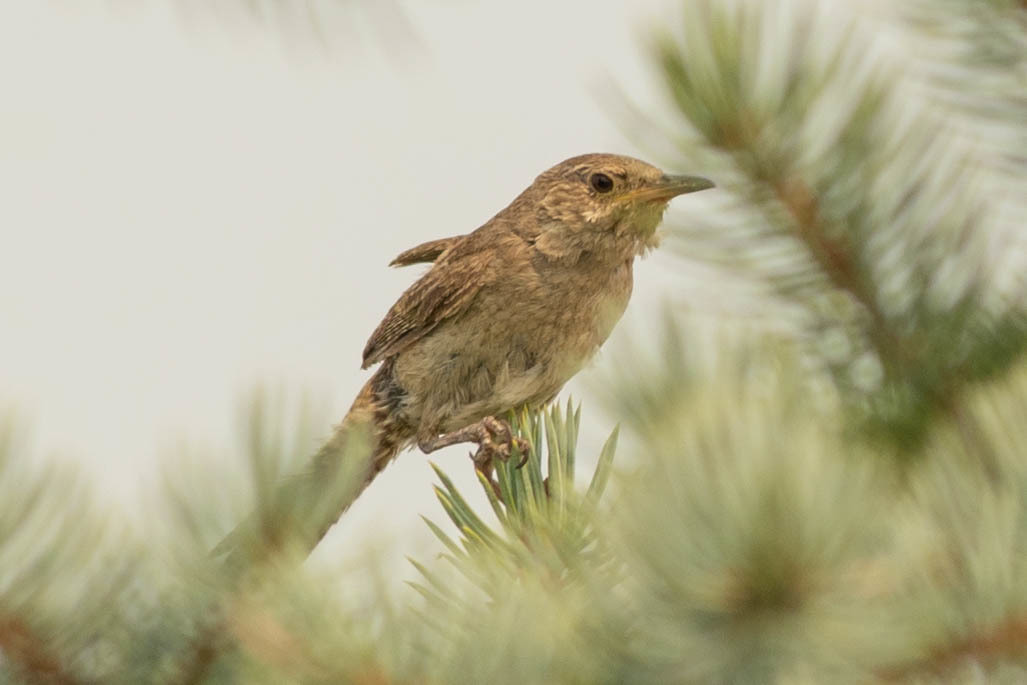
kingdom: Animalia
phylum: Chordata
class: Aves
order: Passeriformes
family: Troglodytidae
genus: Troglodytes
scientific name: Troglodytes aedon
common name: House wren
